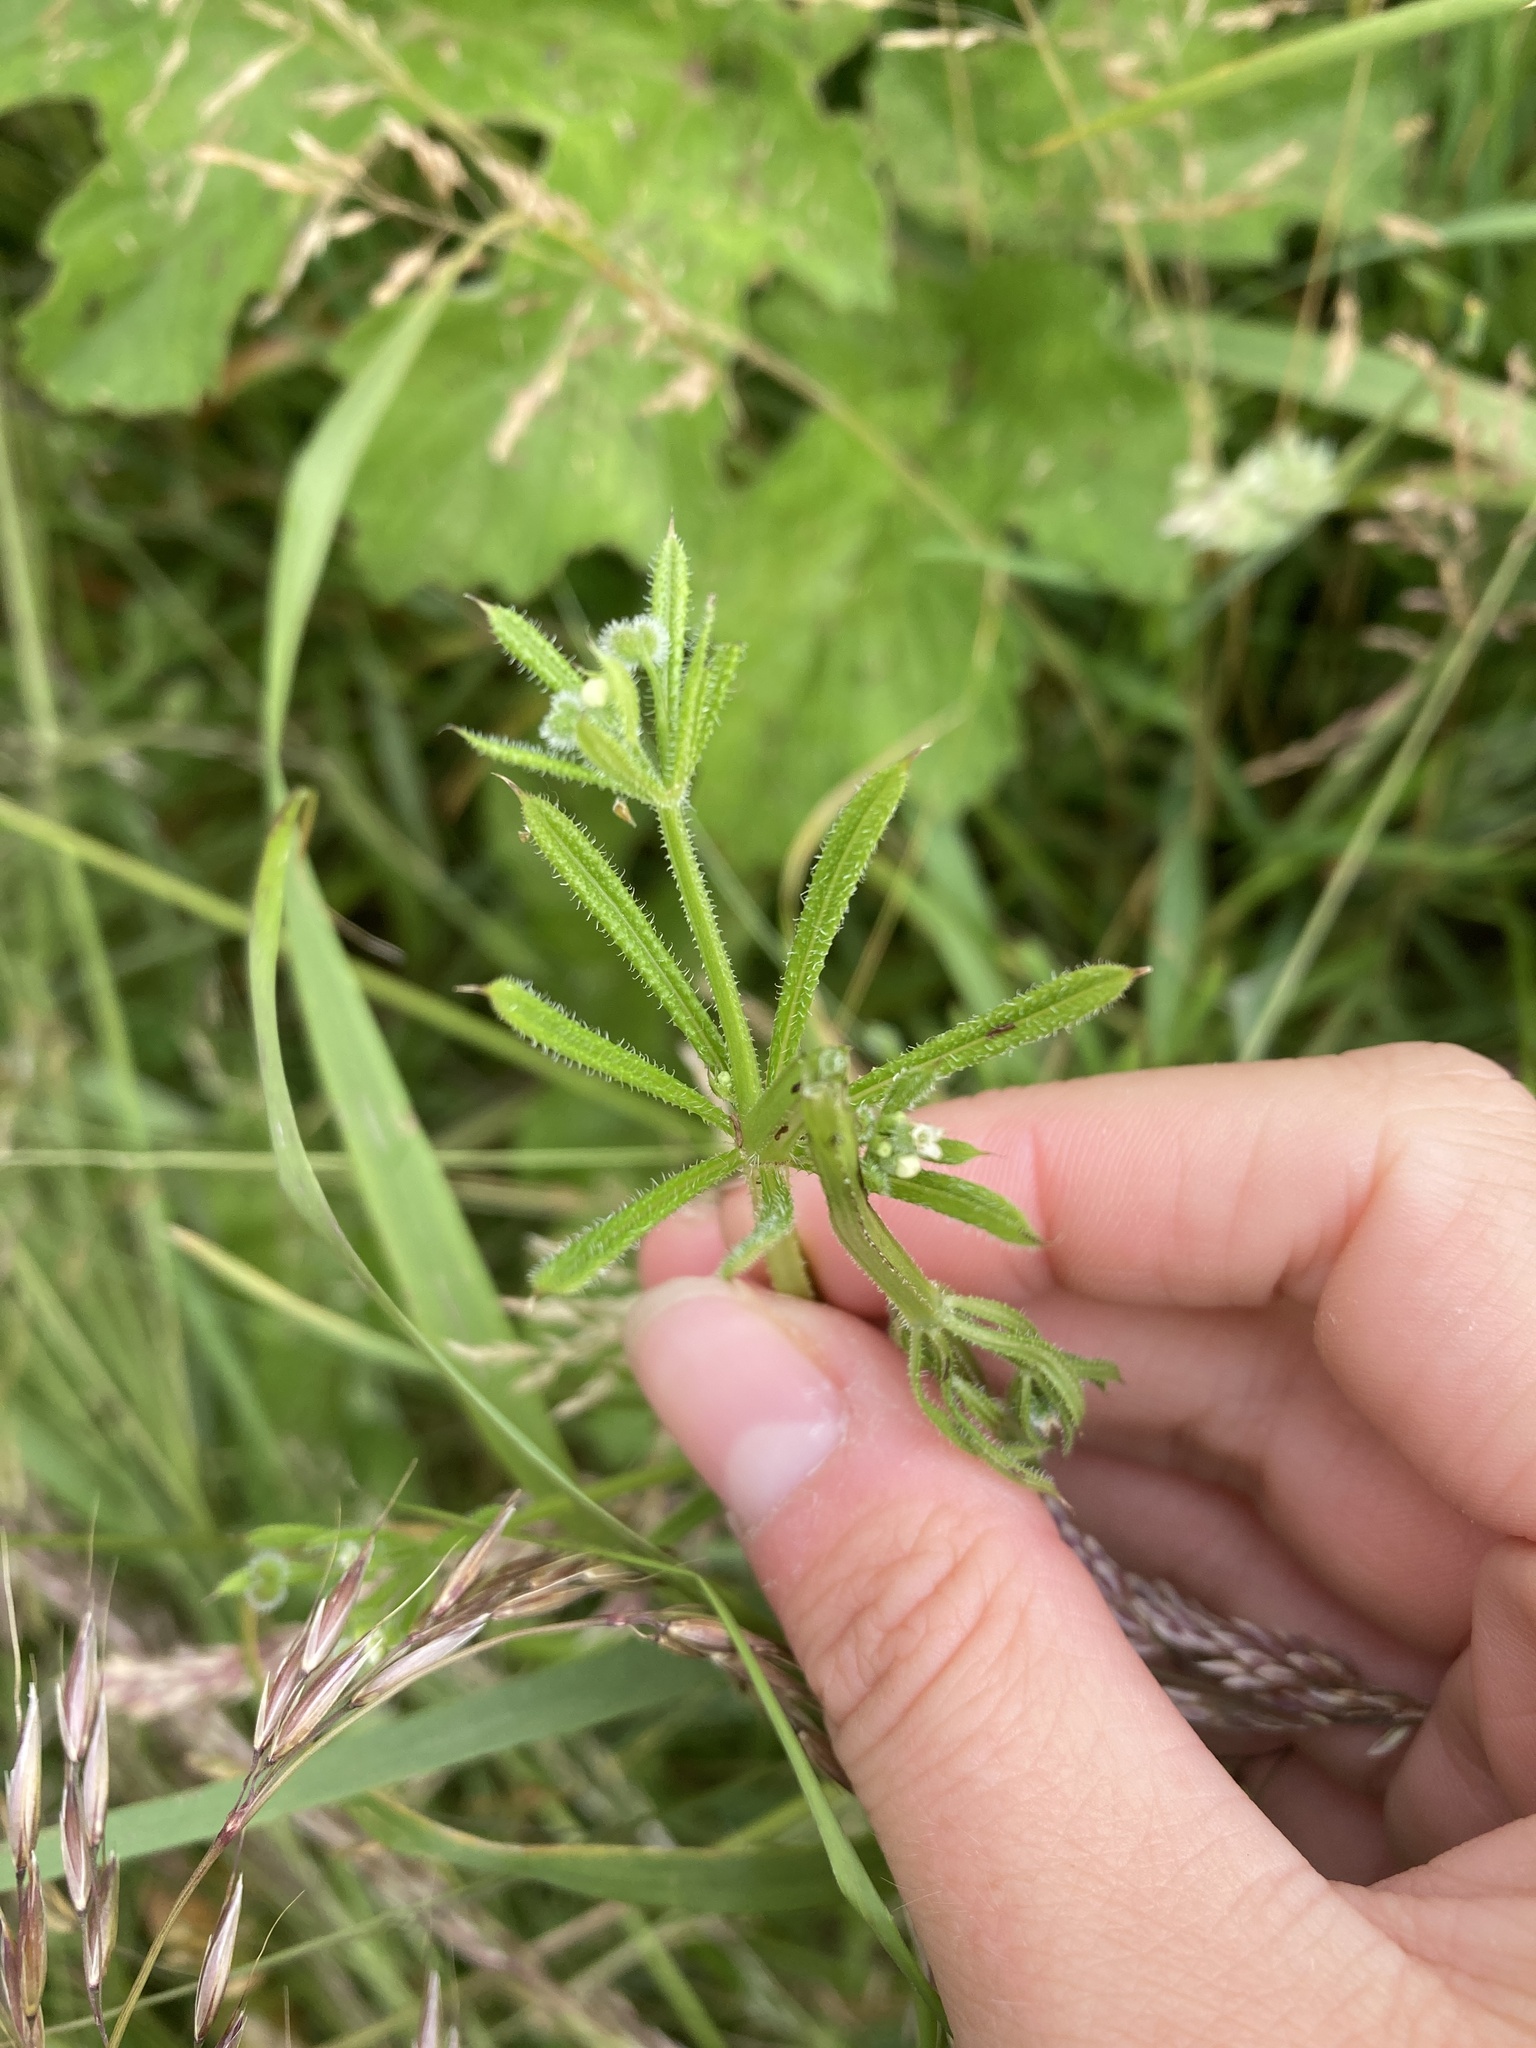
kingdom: Plantae
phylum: Tracheophyta
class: Magnoliopsida
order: Gentianales
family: Rubiaceae
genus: Galium
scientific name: Galium aparine
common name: Cleavers
